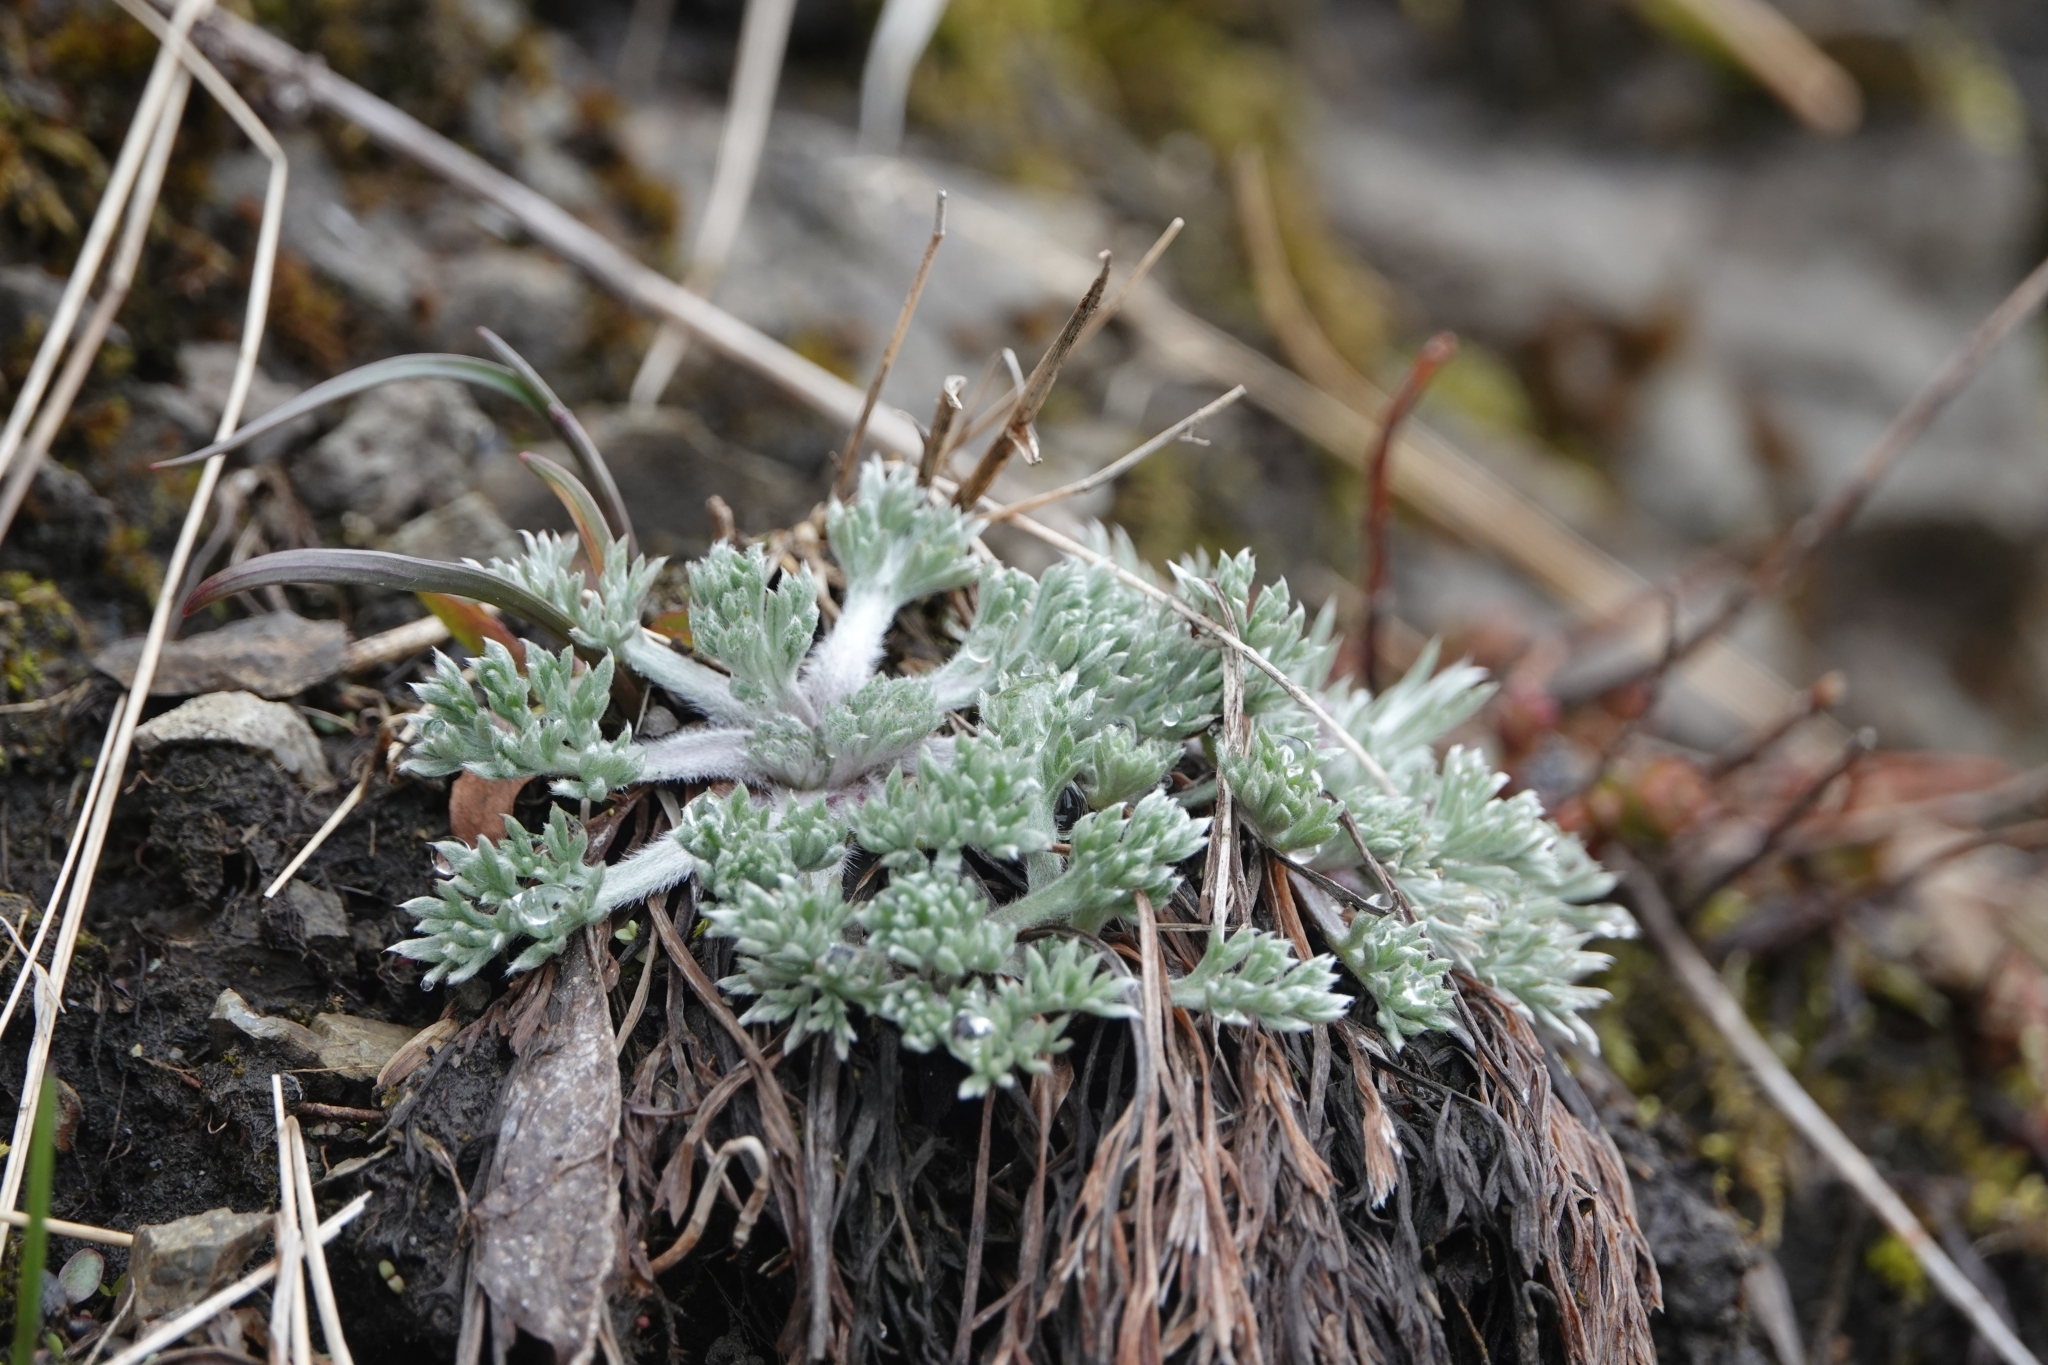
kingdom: Plantae
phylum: Tracheophyta
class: Magnoliopsida
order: Asterales
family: Asteraceae
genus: Artemisia
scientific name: Artemisia borealis
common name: Boreal sage
